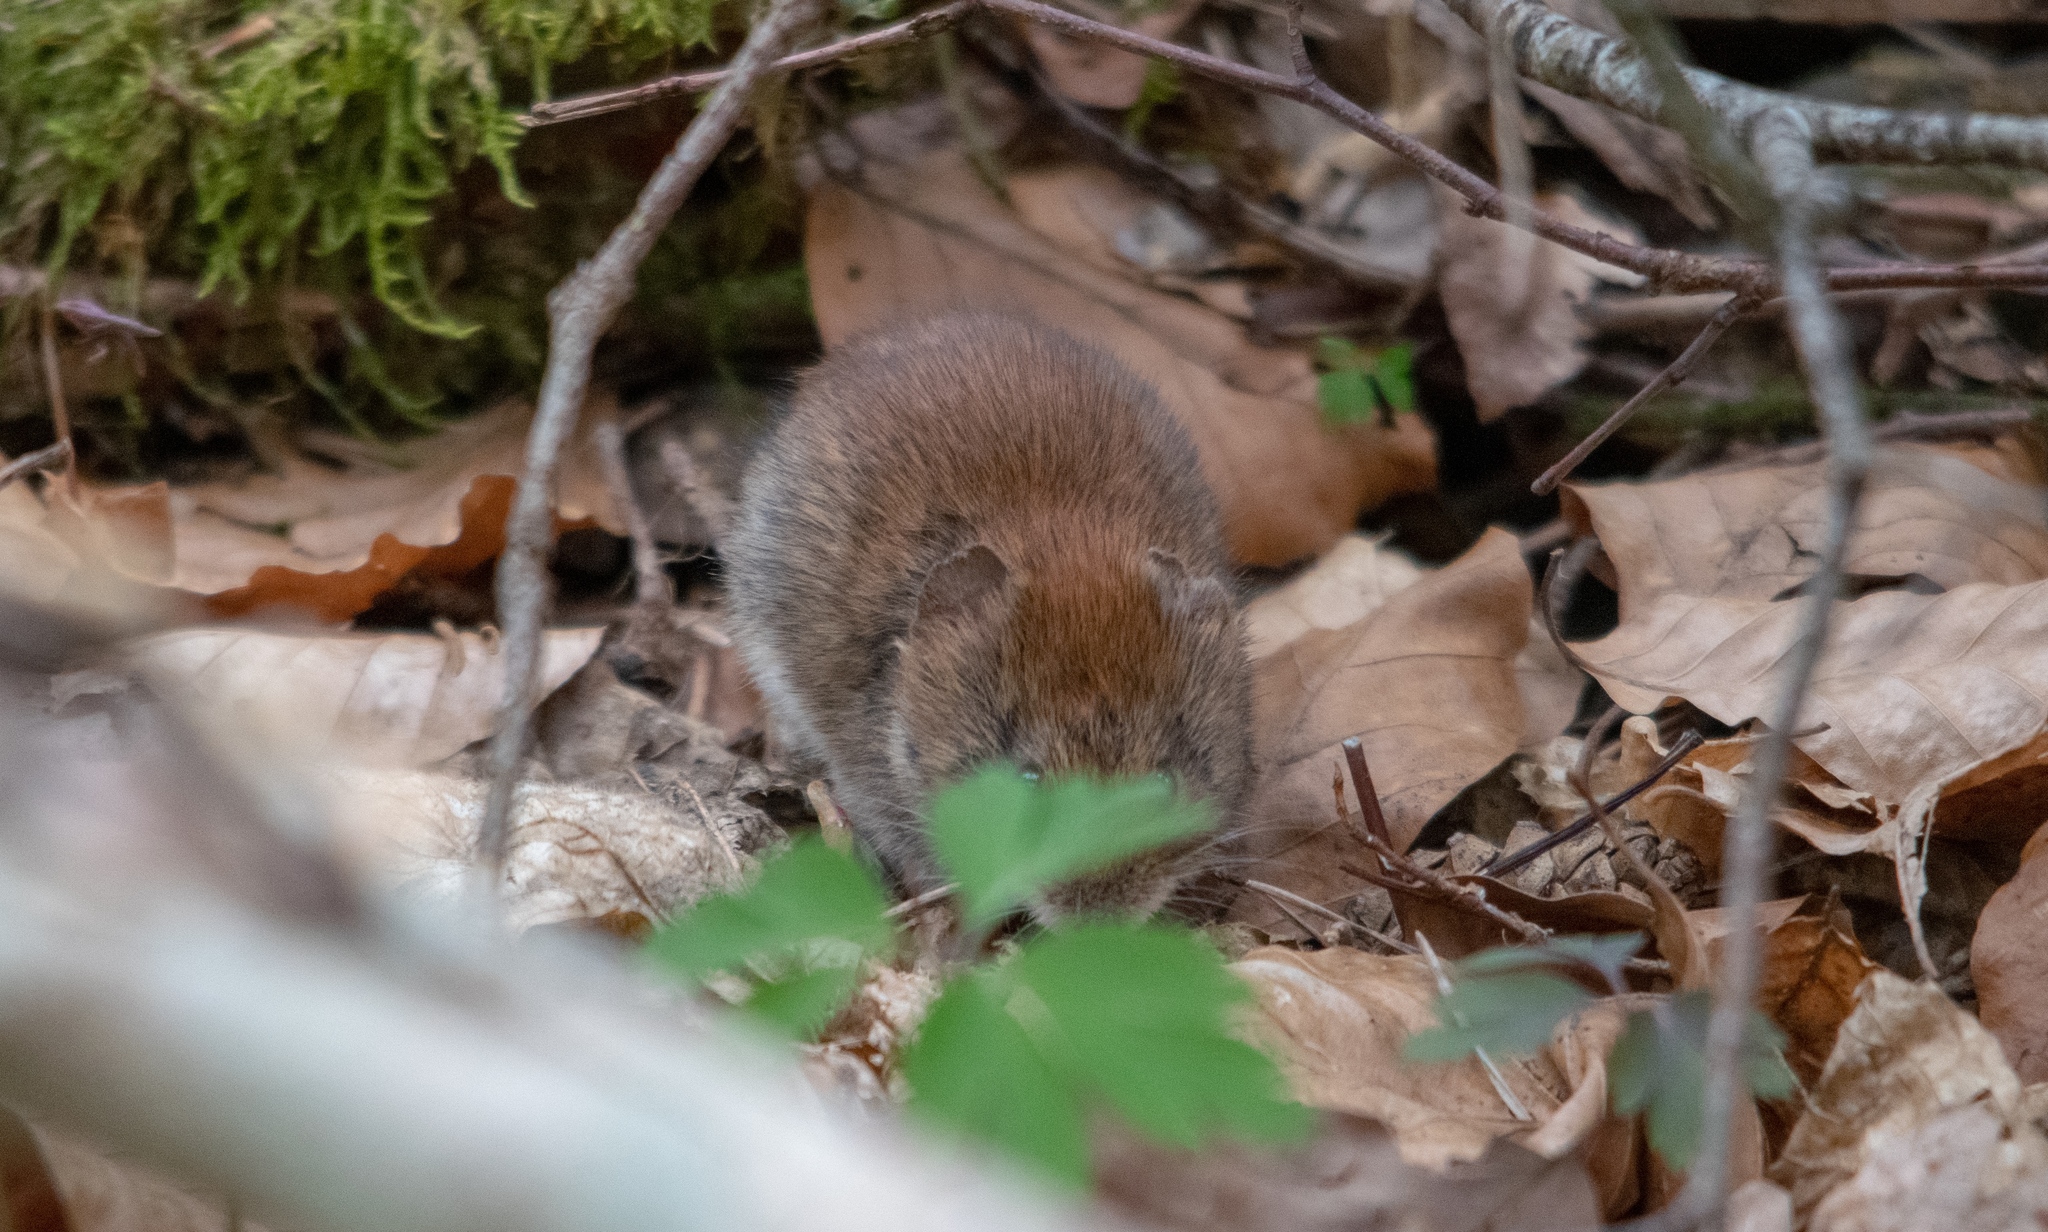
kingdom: Animalia
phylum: Chordata
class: Mammalia
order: Rodentia
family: Cricetidae
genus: Myodes
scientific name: Myodes glareolus
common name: Bank vole
